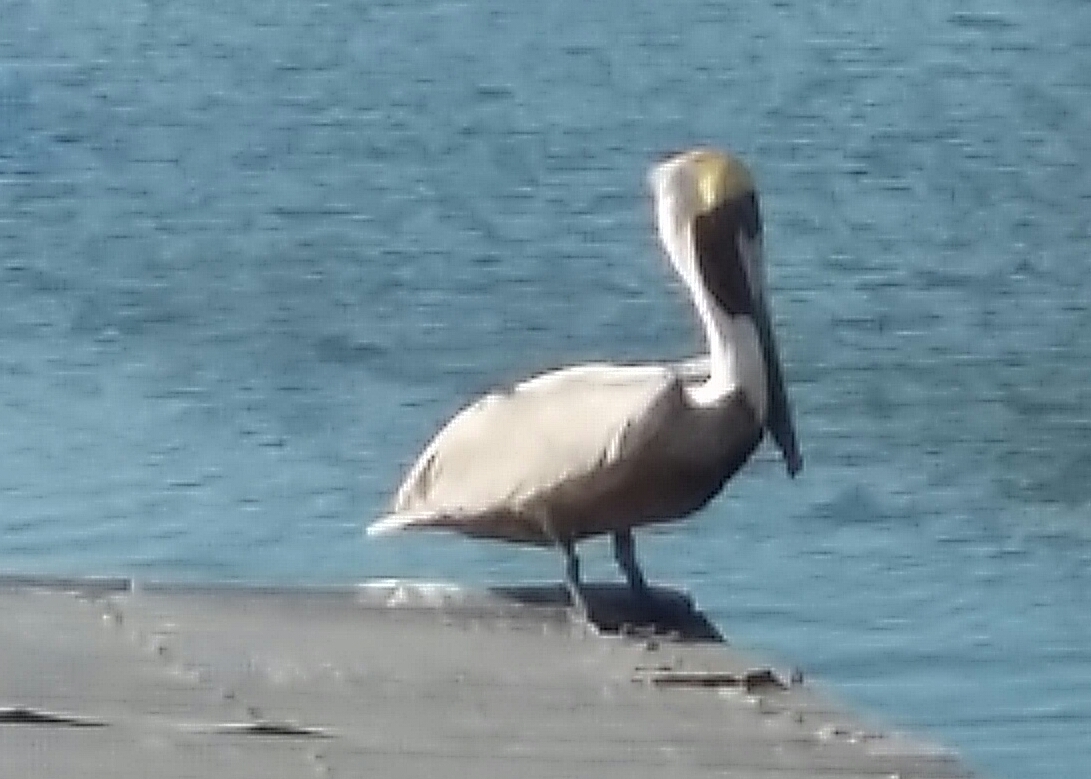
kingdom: Animalia
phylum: Chordata
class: Aves
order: Pelecaniformes
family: Pelecanidae
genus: Pelecanus
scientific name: Pelecanus occidentalis
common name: Brown pelican
